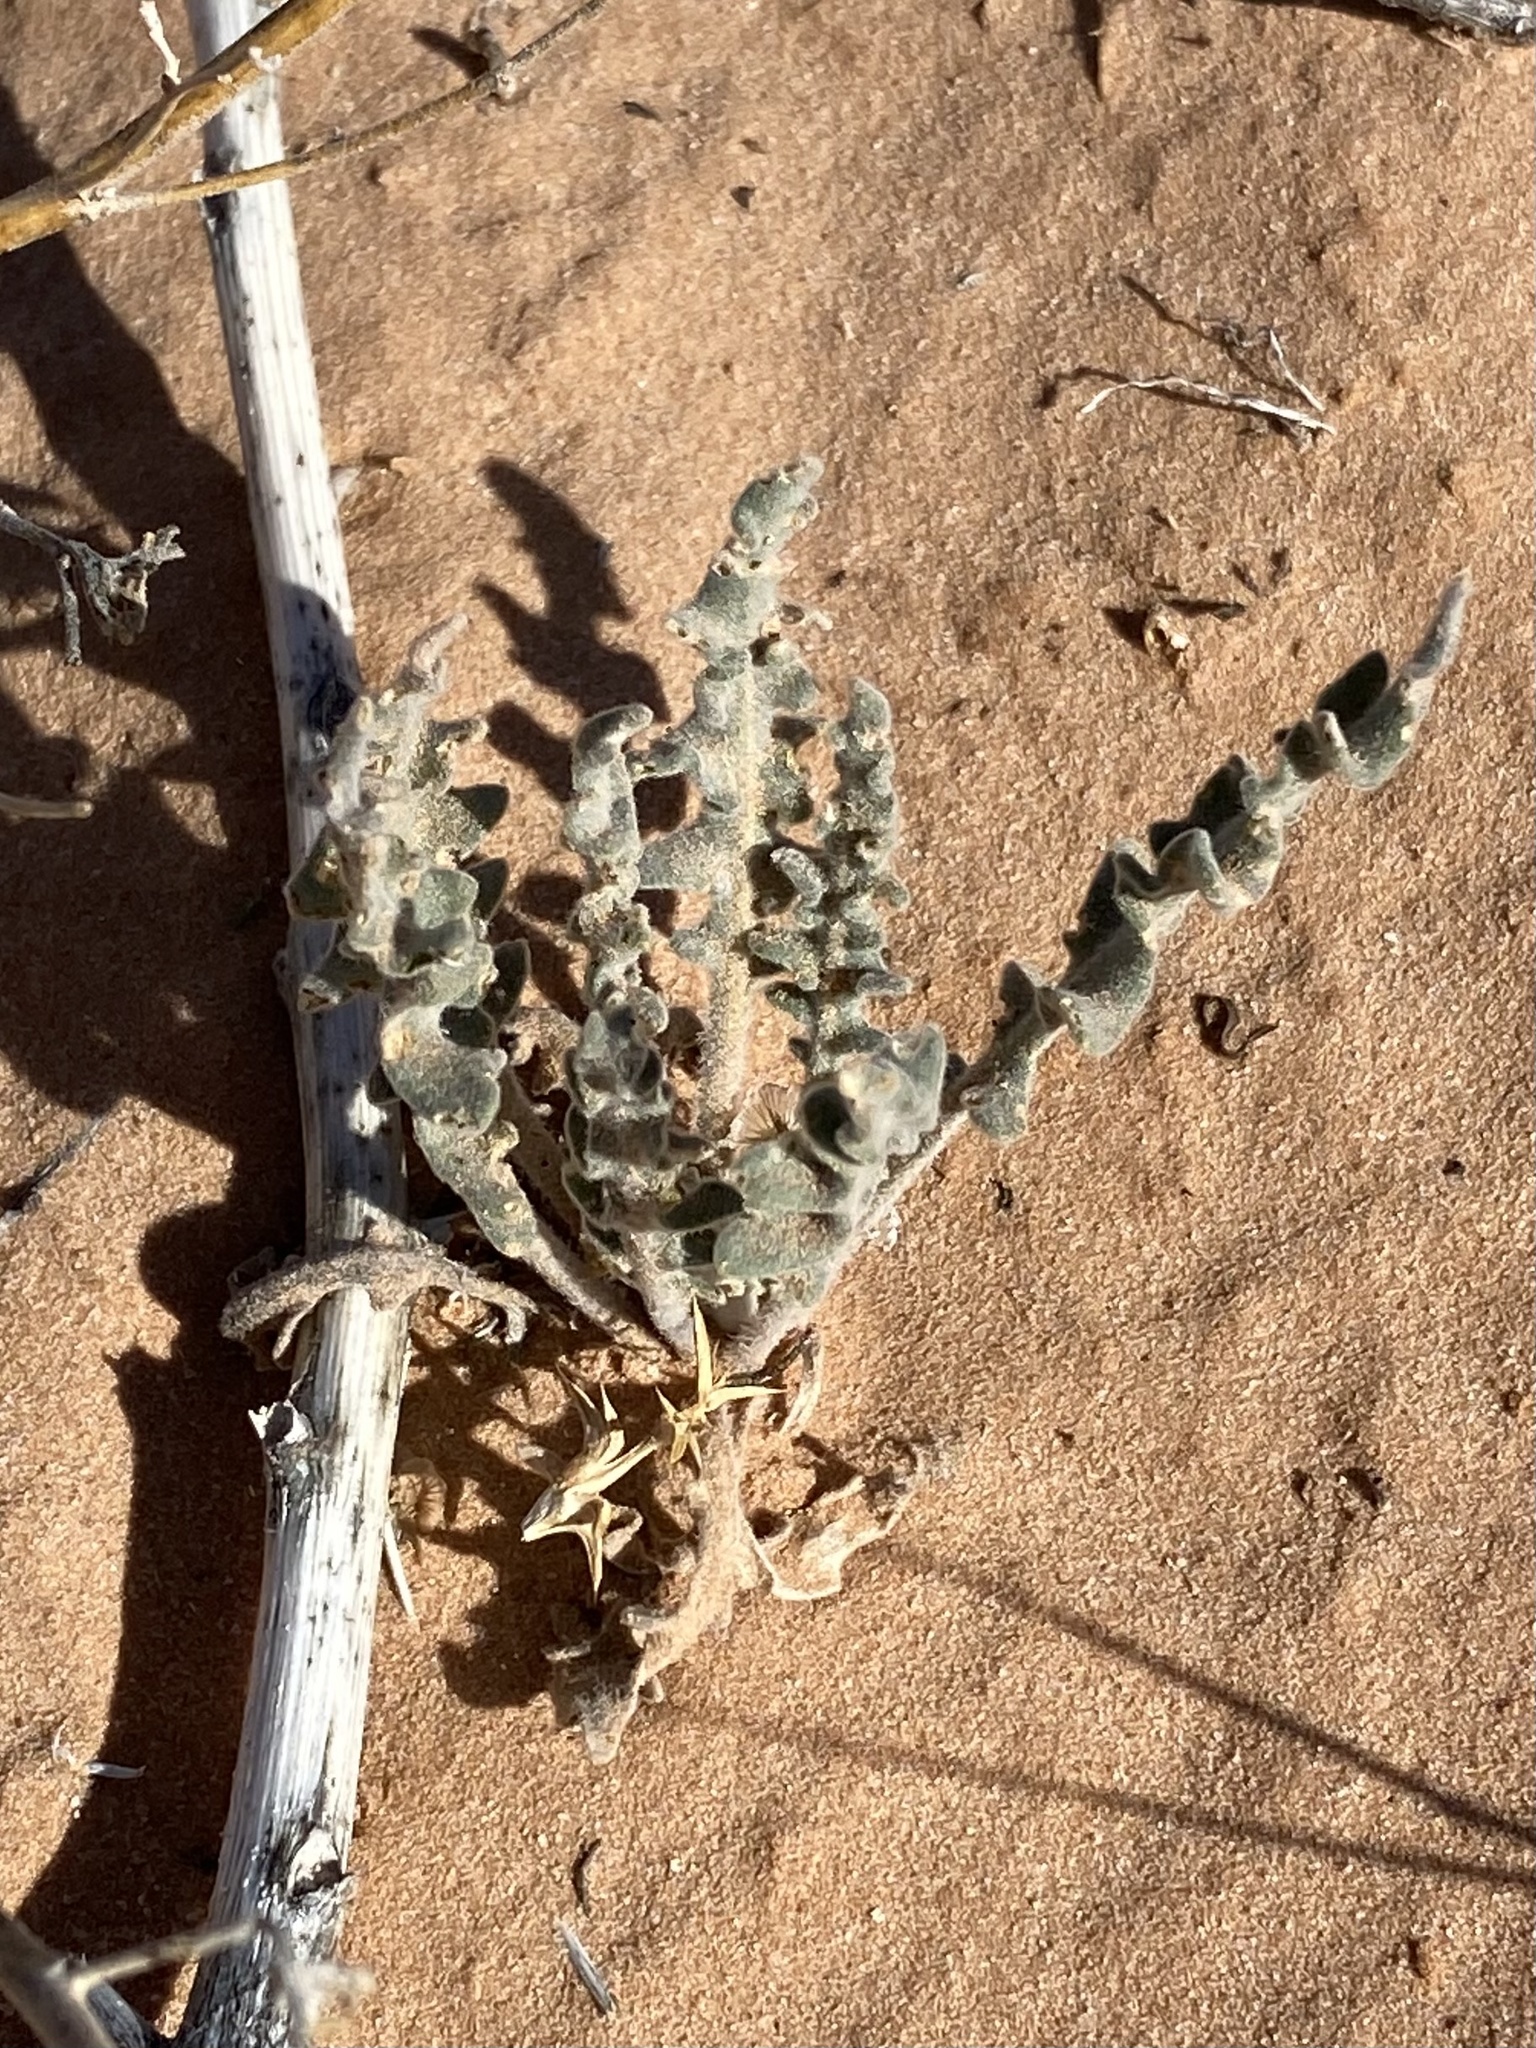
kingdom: Plantae
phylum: Tracheophyta
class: Magnoliopsida
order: Brassicales
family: Brassicaceae
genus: Dimorphocarpa
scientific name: Dimorphocarpa wislizenii
